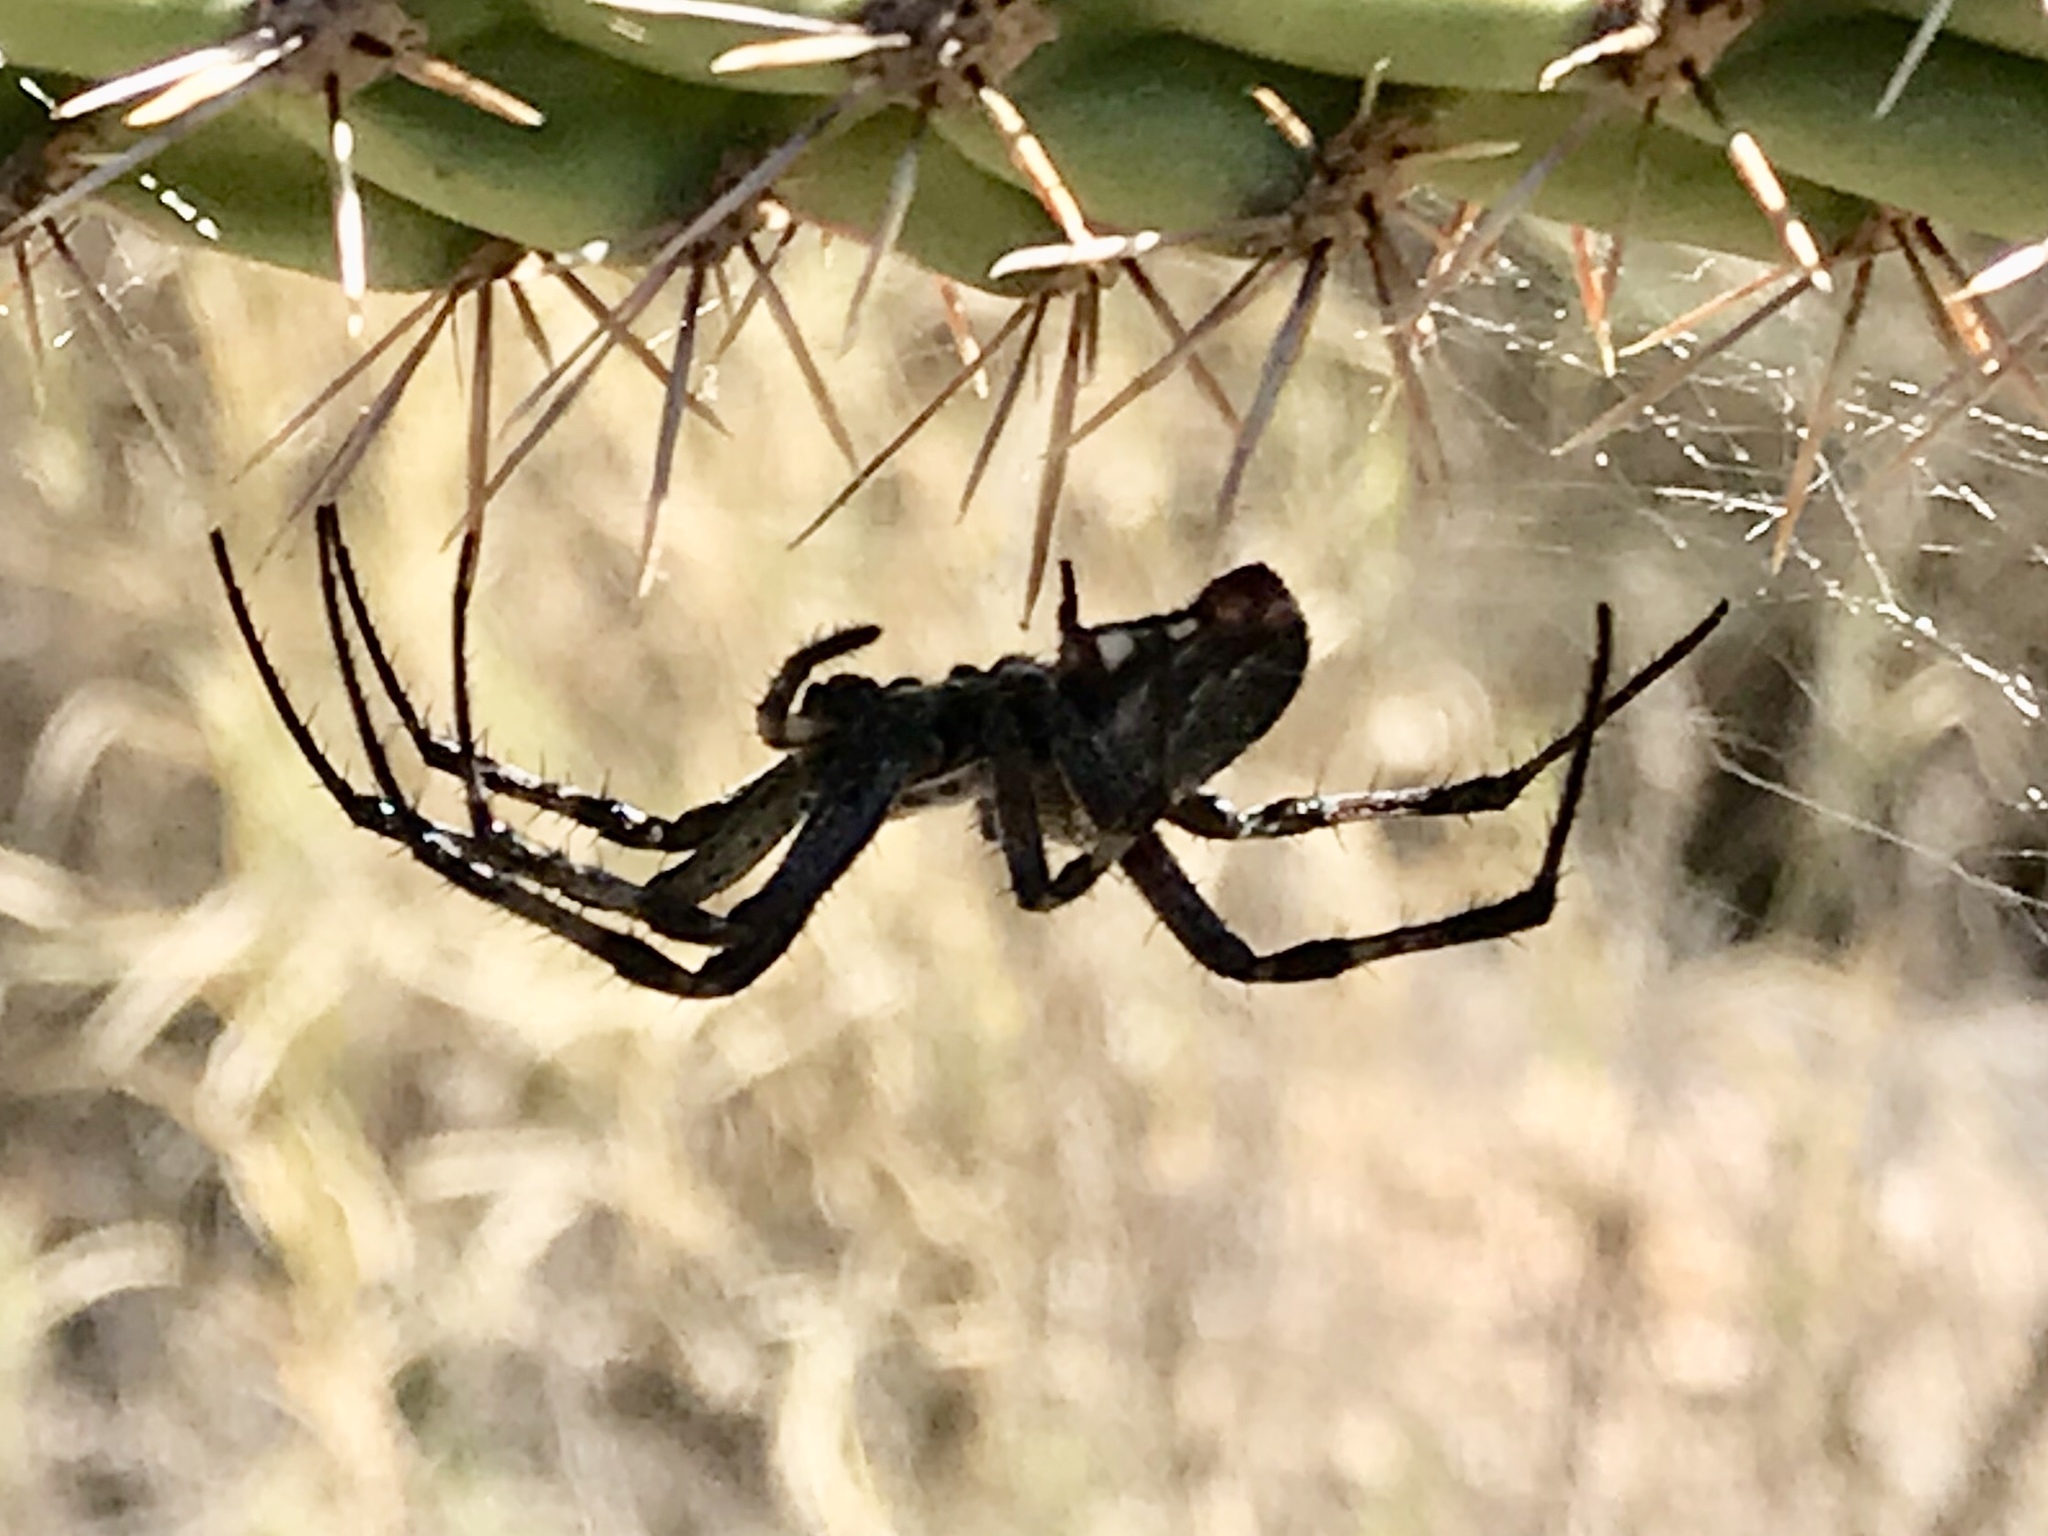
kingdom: Animalia
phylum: Arthropoda
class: Arachnida
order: Araneae
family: Araneidae
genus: Neoscona
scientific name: Neoscona oaxacensis
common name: Orb weavers
